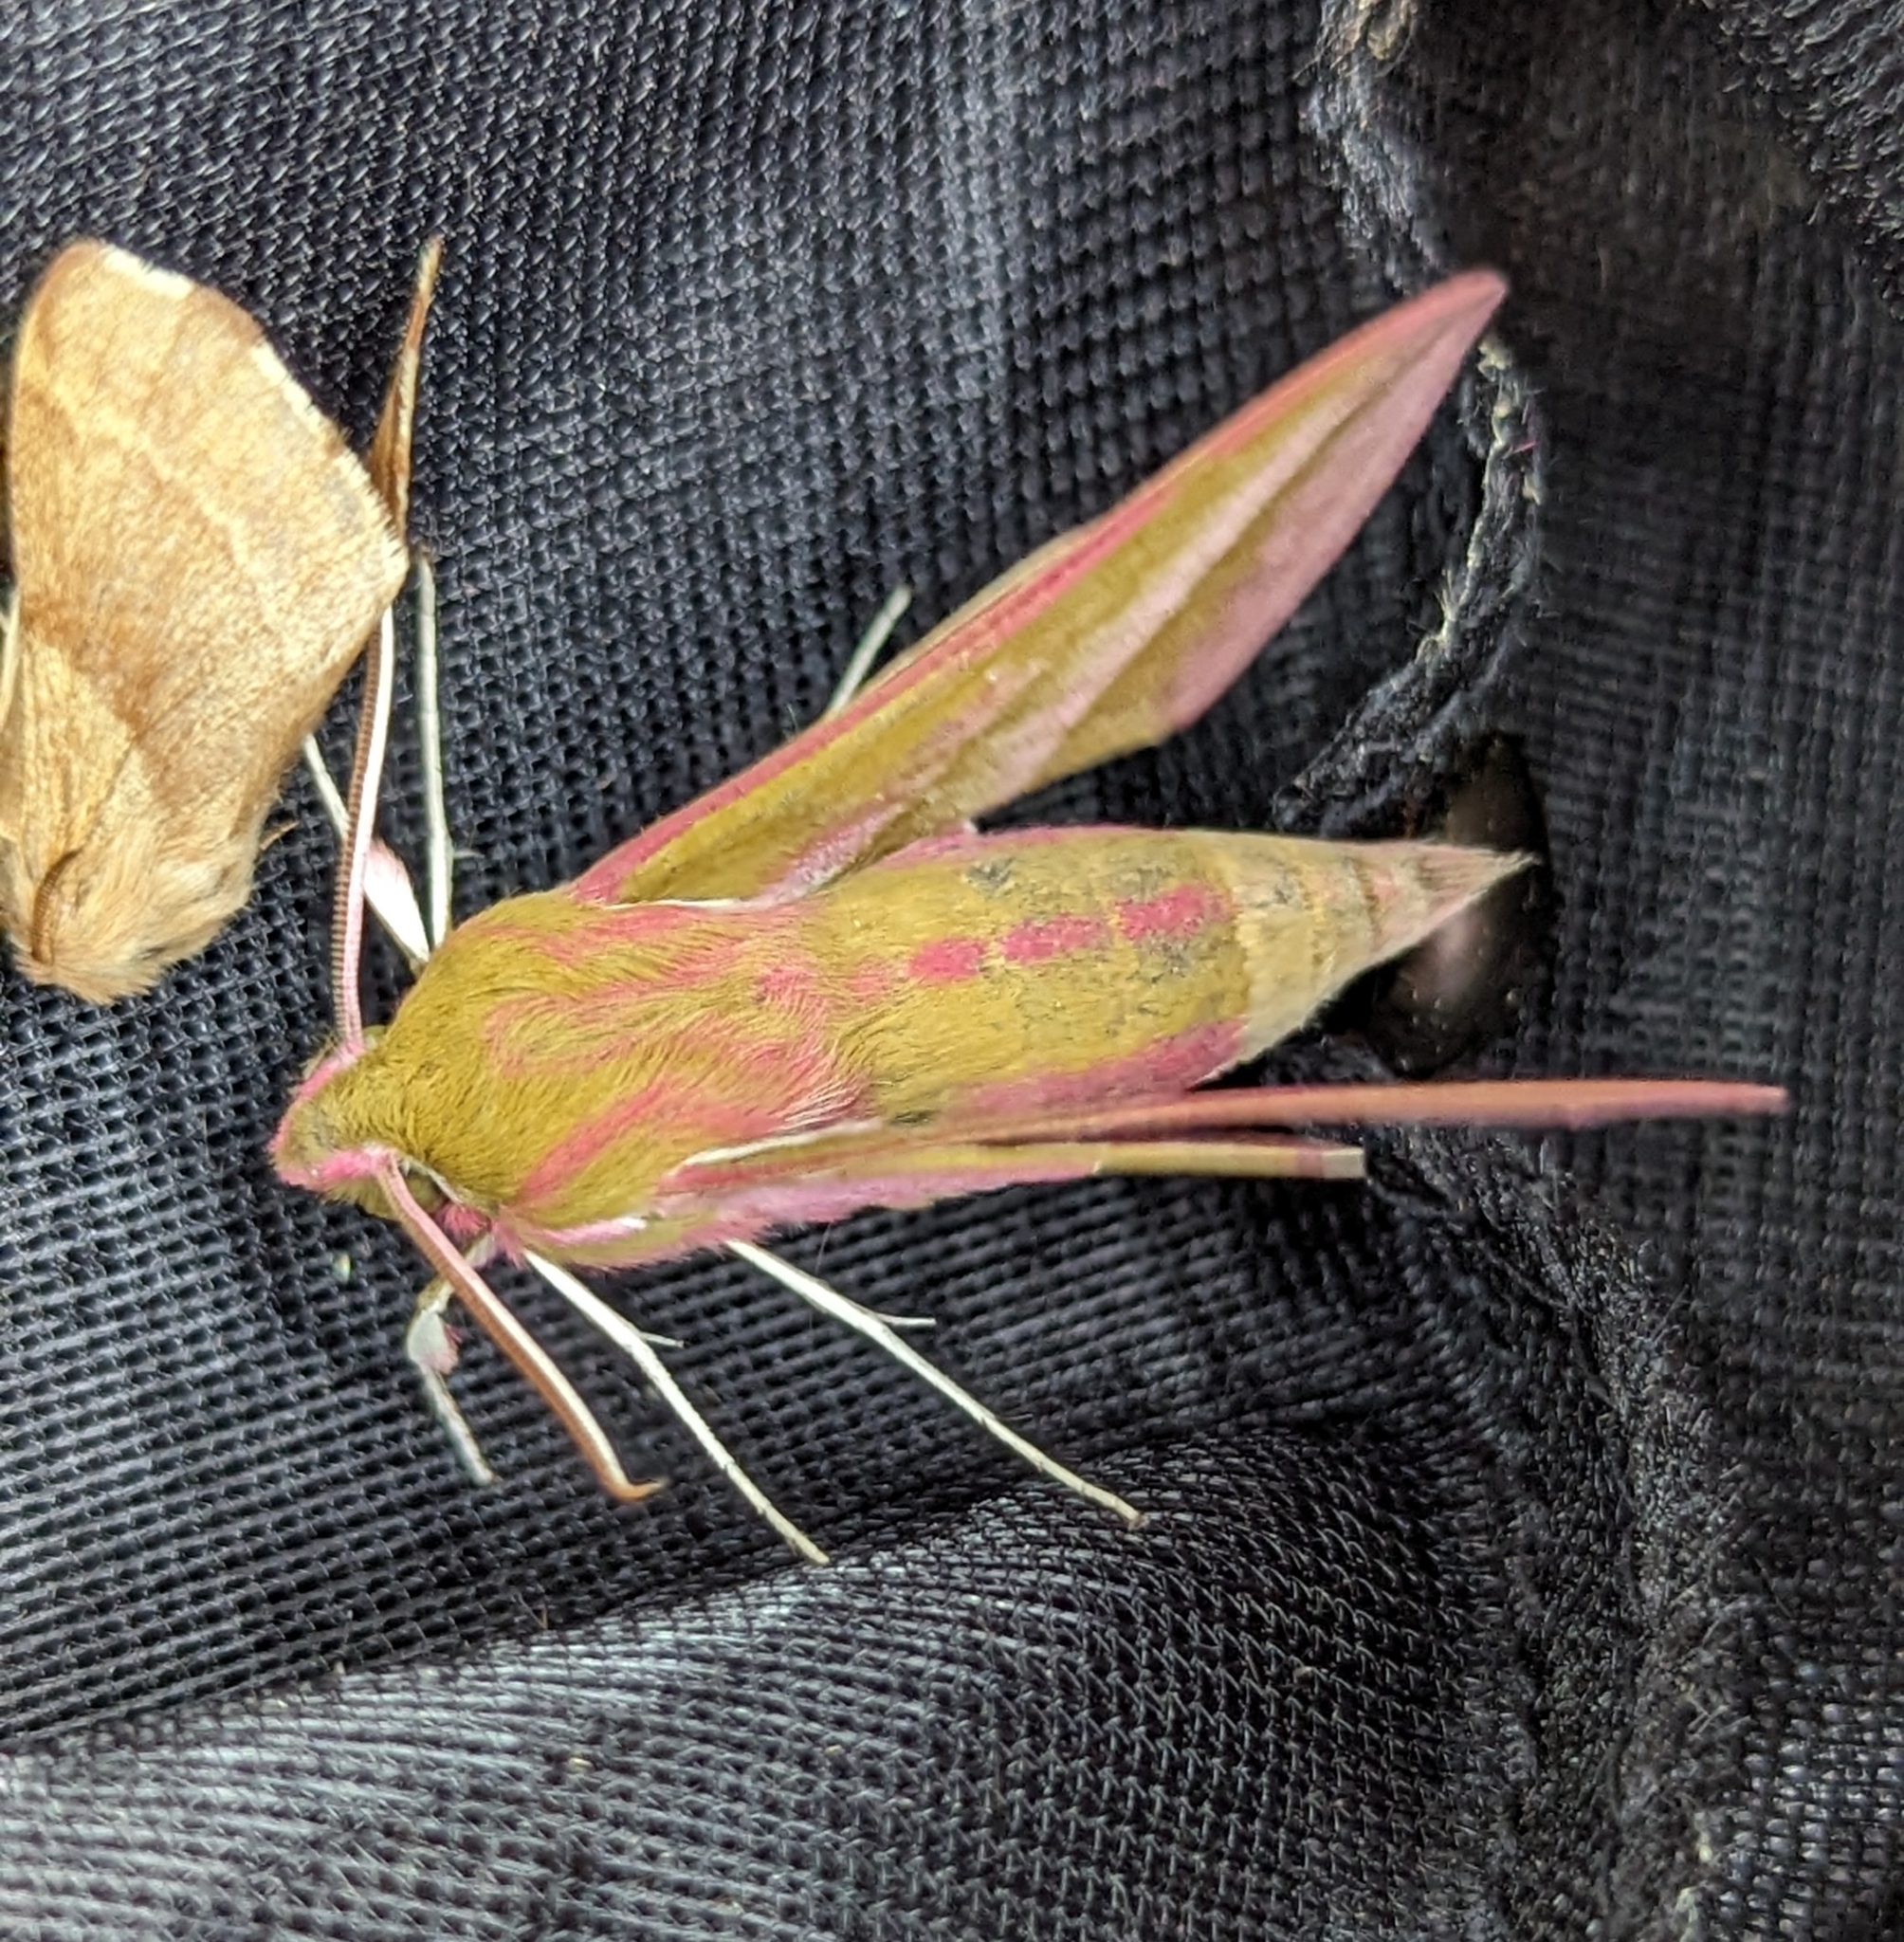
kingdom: Animalia
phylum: Arthropoda
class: Insecta
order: Lepidoptera
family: Sphingidae
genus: Deilephila
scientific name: Deilephila elpenor
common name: Elephant hawk-moth
